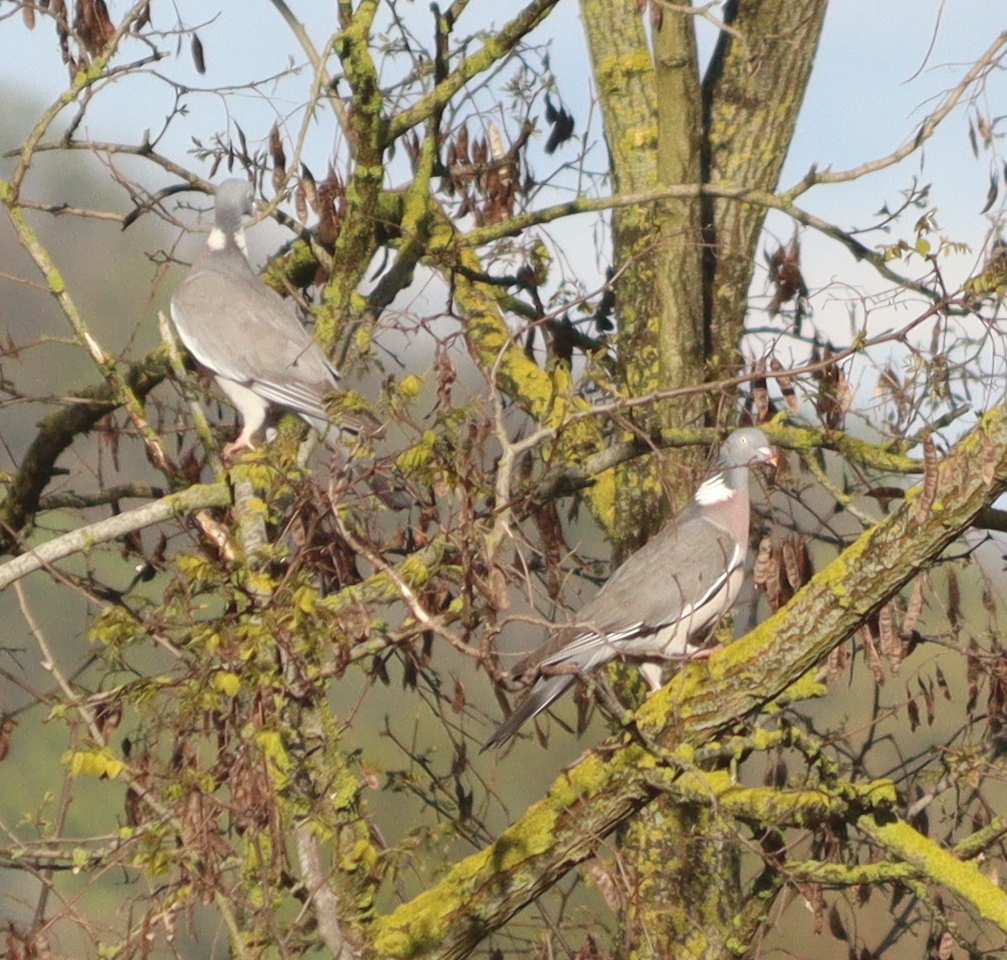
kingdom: Animalia
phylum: Chordata
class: Aves
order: Columbiformes
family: Columbidae
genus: Columba
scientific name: Columba palumbus
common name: Common wood pigeon
